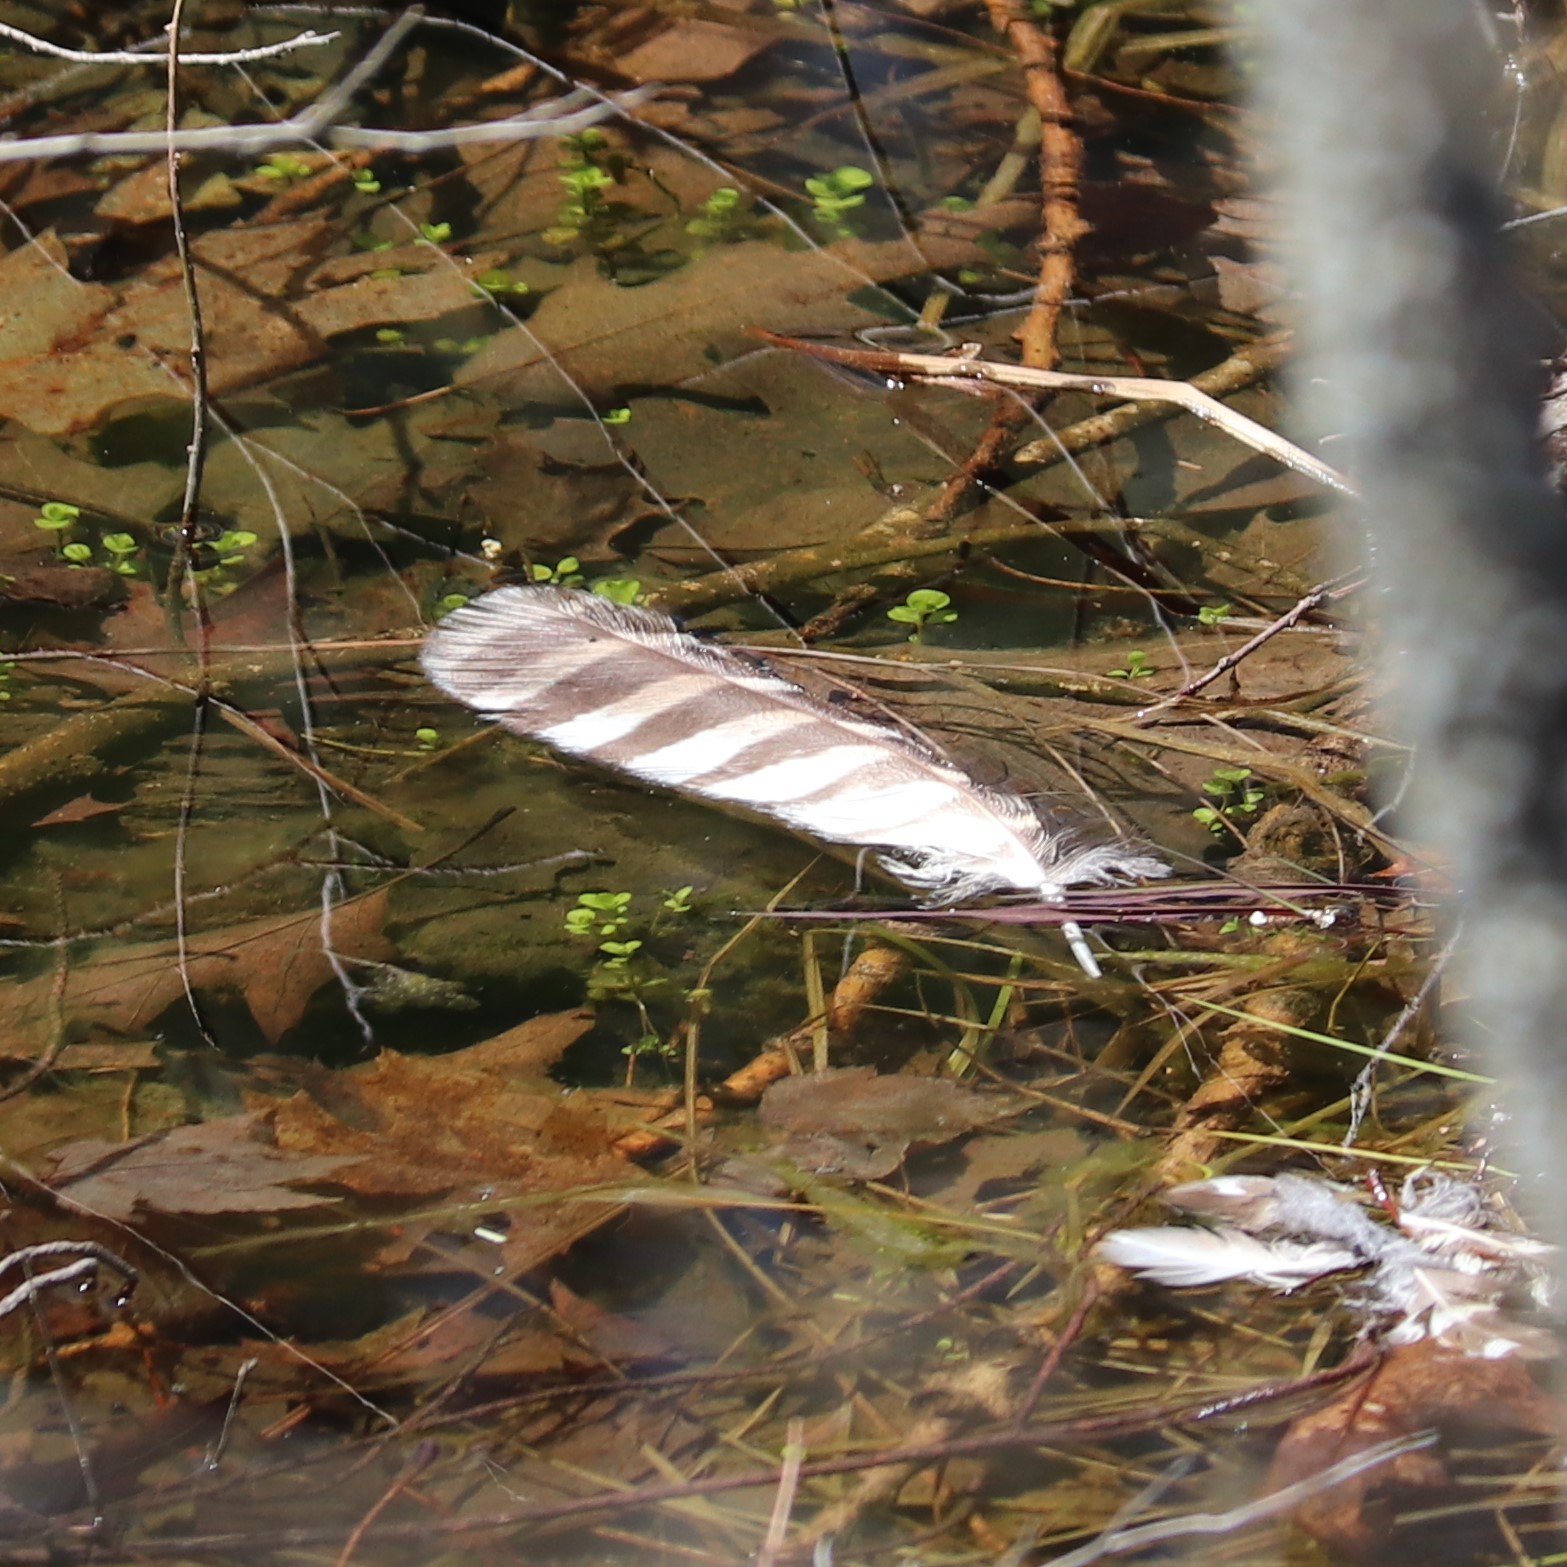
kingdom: Animalia
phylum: Chordata
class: Aves
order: Strigiformes
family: Strigidae
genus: Strix
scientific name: Strix varia
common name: Barred owl
